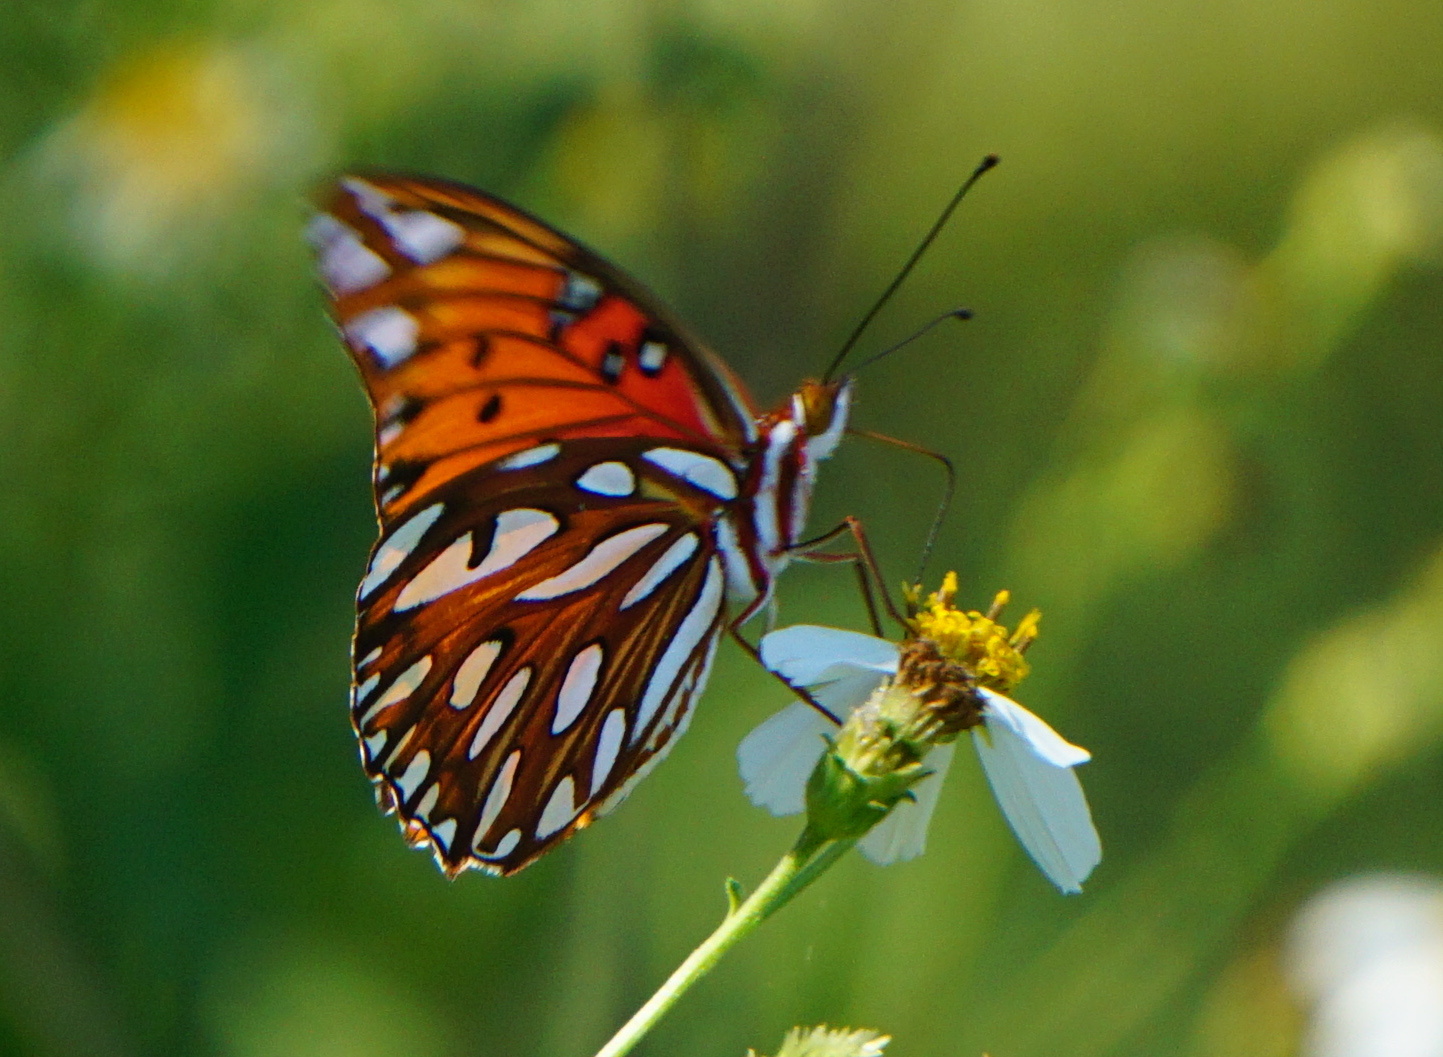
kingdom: Animalia
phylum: Arthropoda
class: Insecta
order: Lepidoptera
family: Nymphalidae
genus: Dione
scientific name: Dione vanillae
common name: Gulf fritillary
